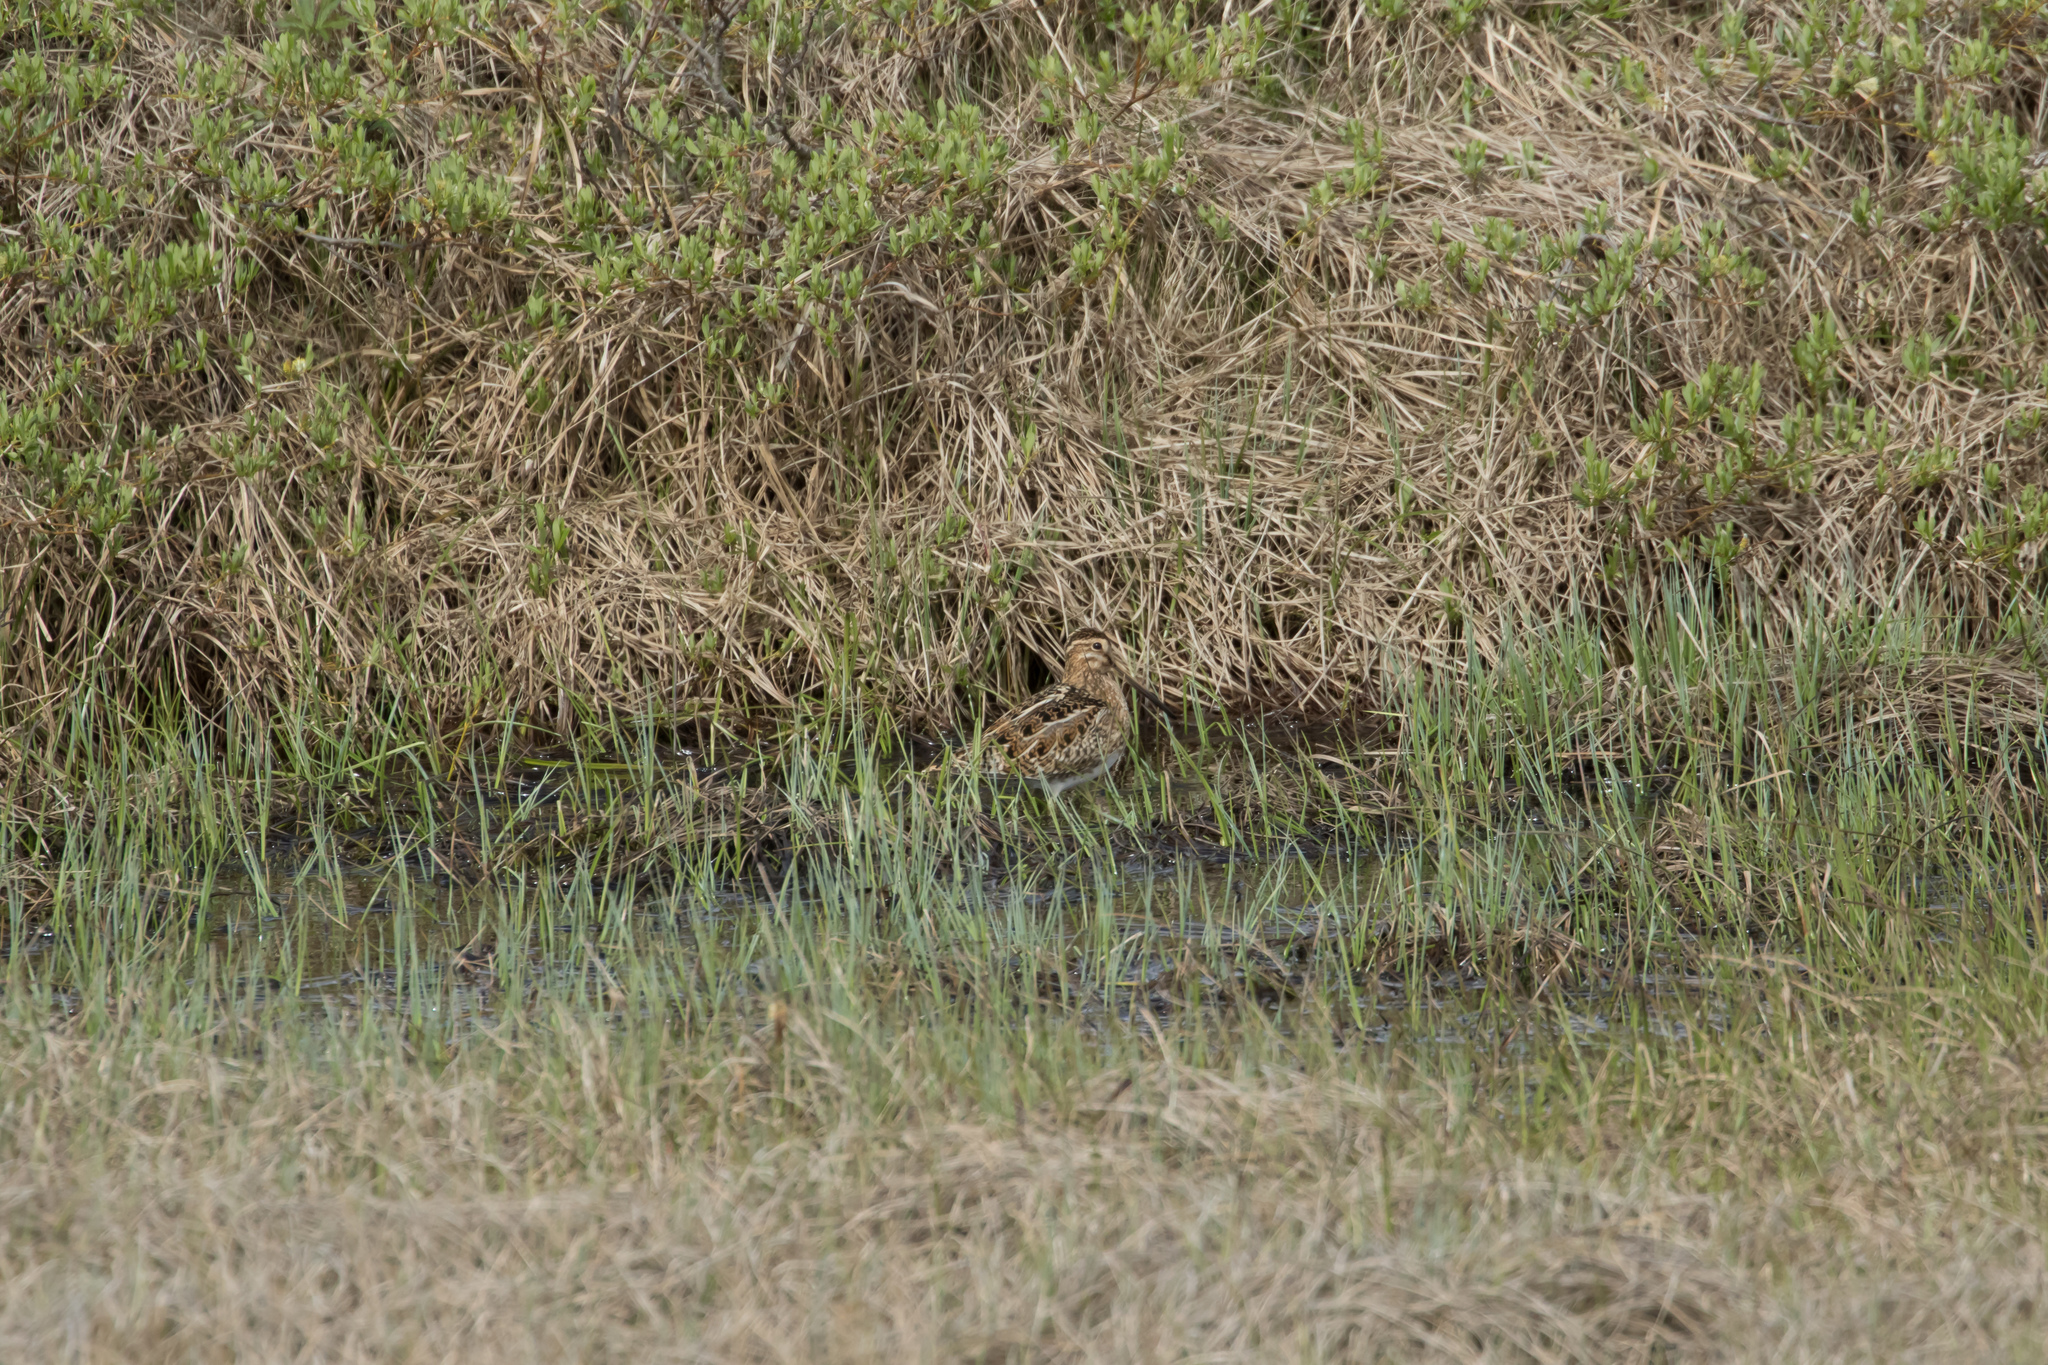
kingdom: Animalia
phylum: Chordata
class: Aves
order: Charadriiformes
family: Scolopacidae
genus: Gallinago
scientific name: Gallinago gallinago
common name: Common snipe
